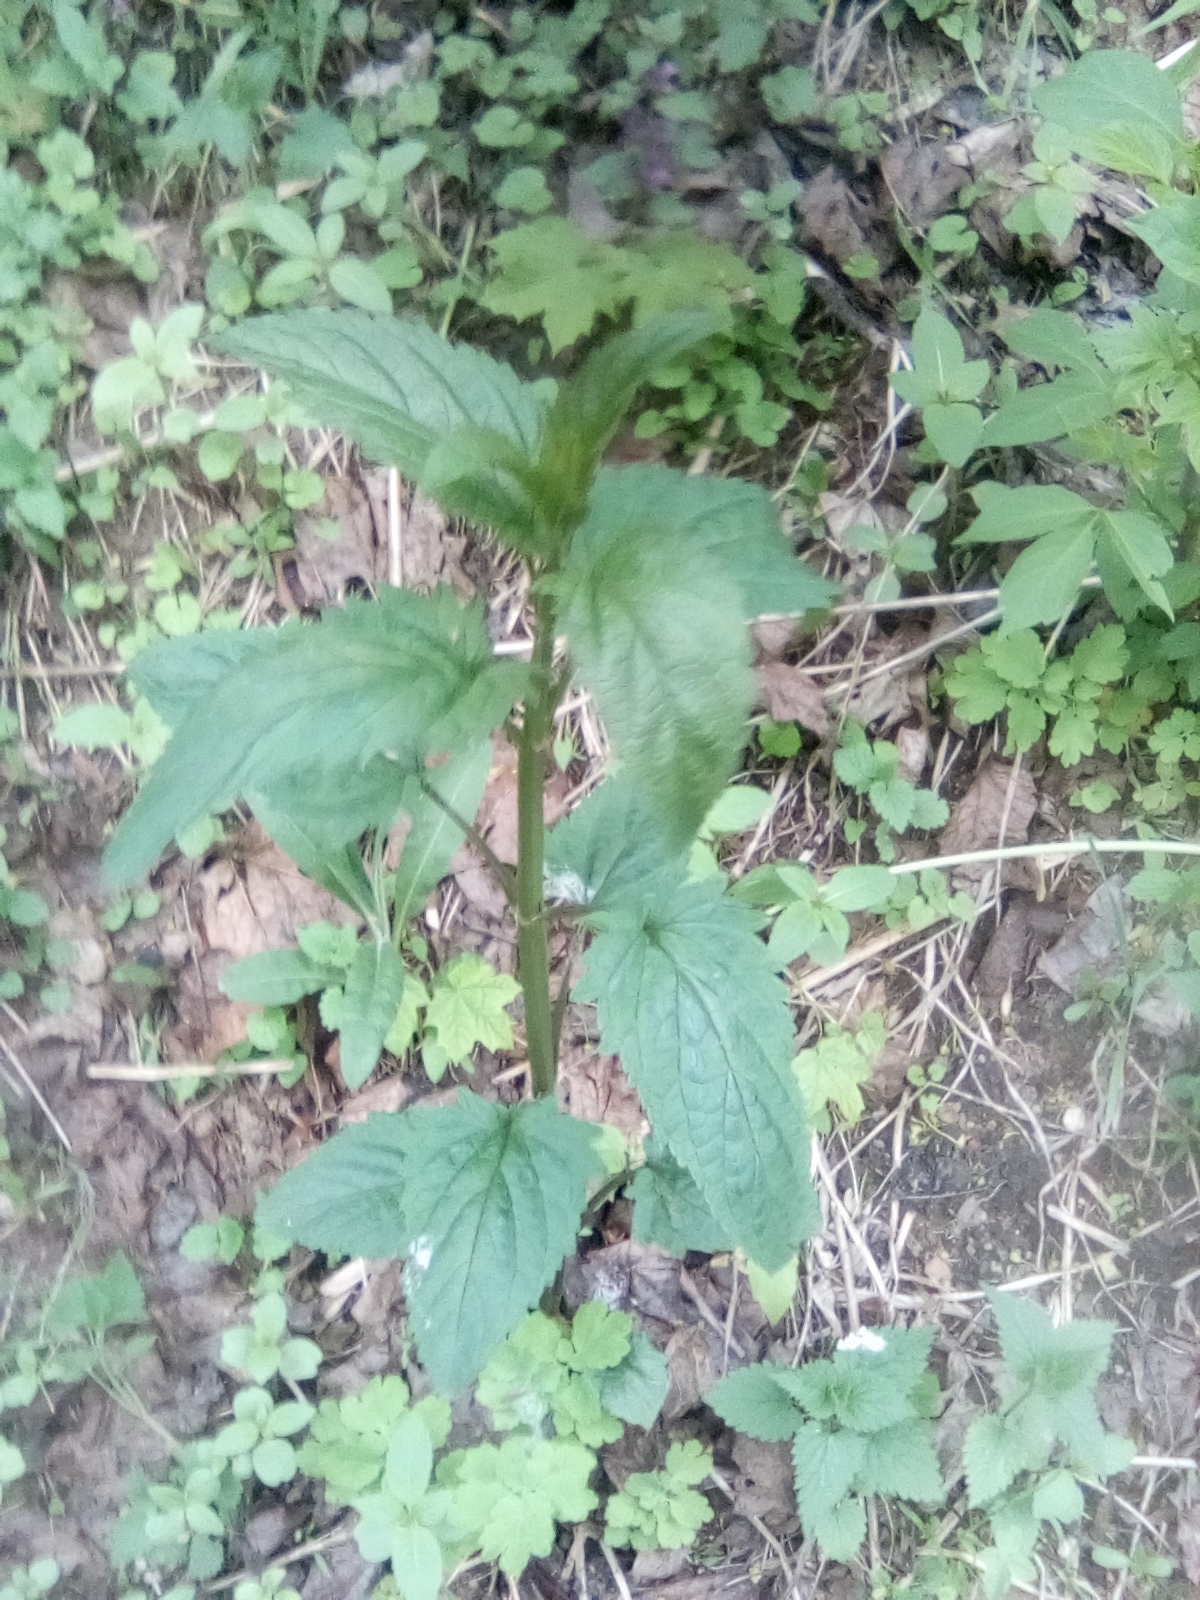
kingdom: Plantae
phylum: Tracheophyta
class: Magnoliopsida
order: Lamiales
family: Scrophulariaceae
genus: Scrophularia
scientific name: Scrophularia nodosa
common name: Common figwort
